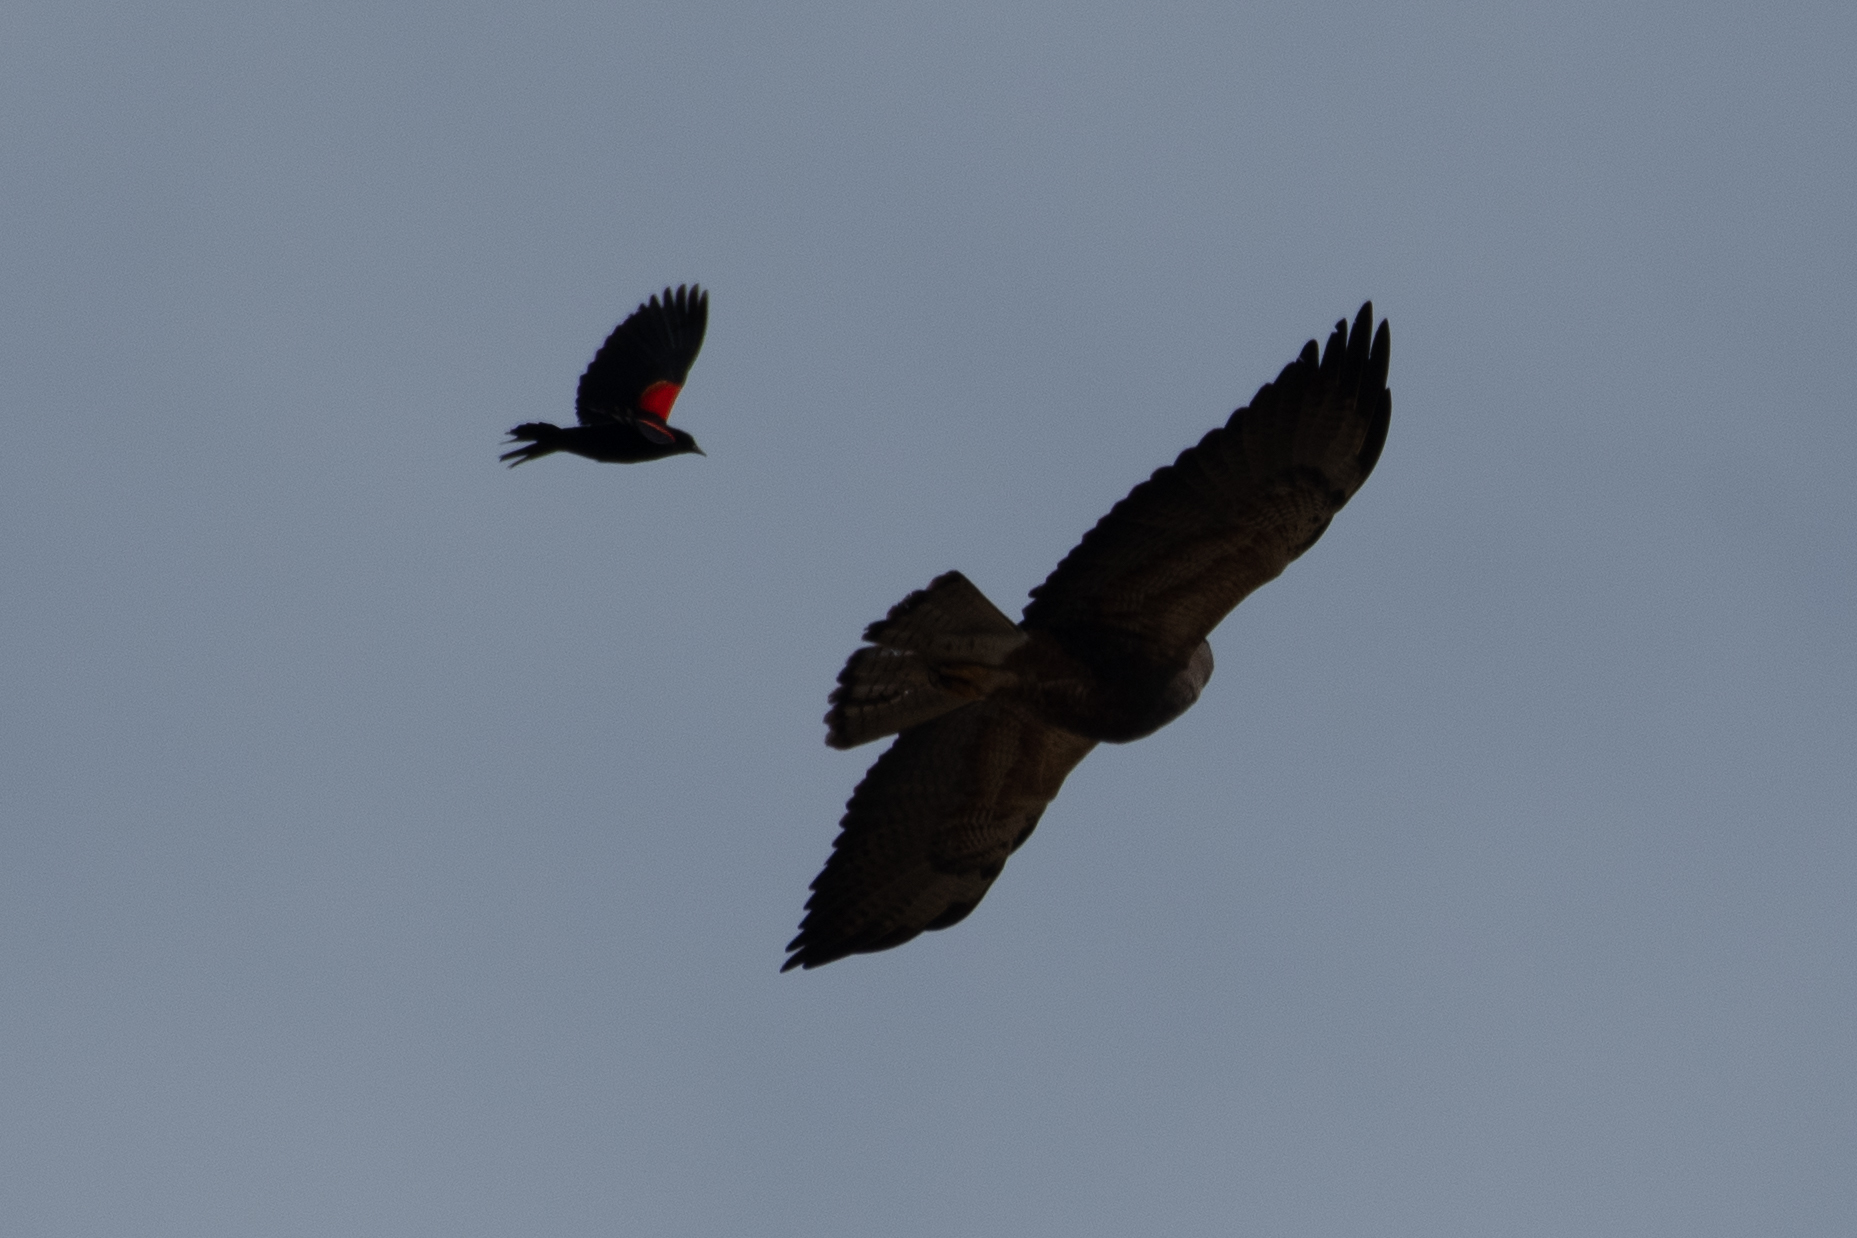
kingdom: Animalia
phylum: Chordata
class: Aves
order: Accipitriformes
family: Accipitridae
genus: Buteo
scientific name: Buteo swainsoni
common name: Swainson's hawk
